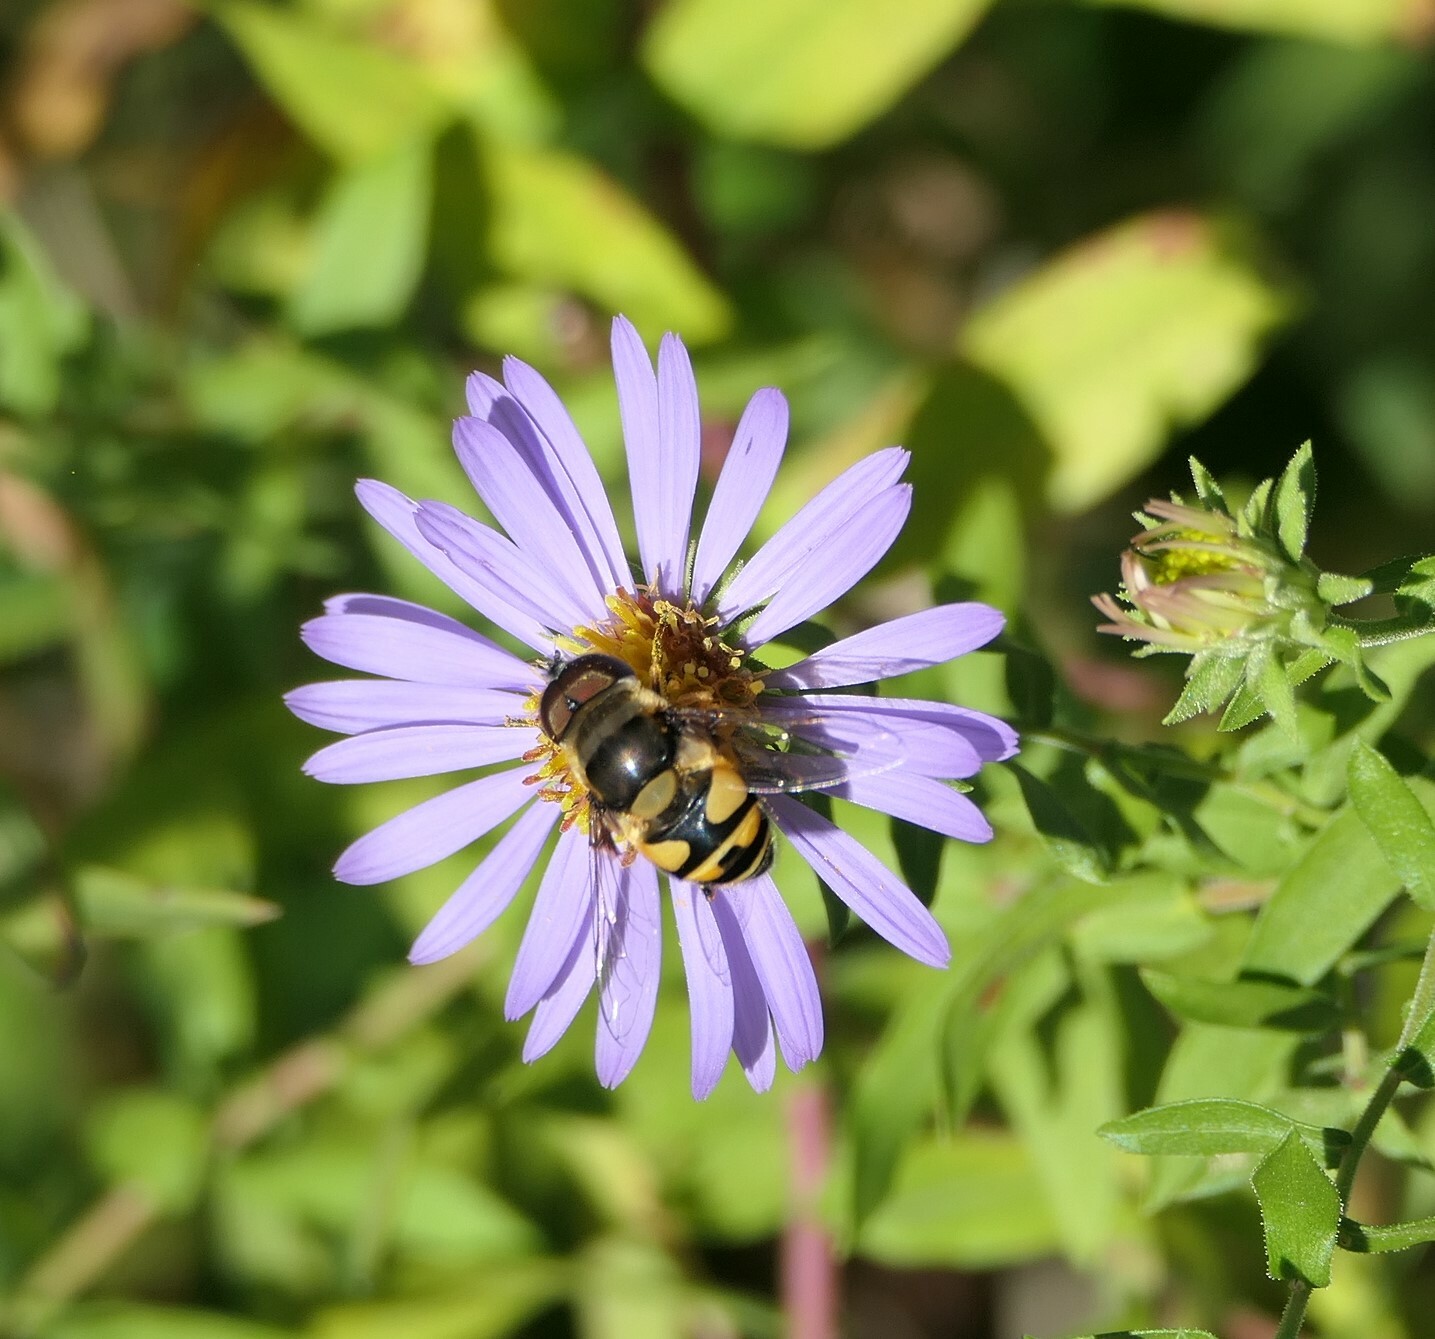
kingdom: Animalia
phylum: Arthropoda
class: Insecta
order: Diptera
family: Syrphidae
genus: Eristalis
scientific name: Eristalis transversa
